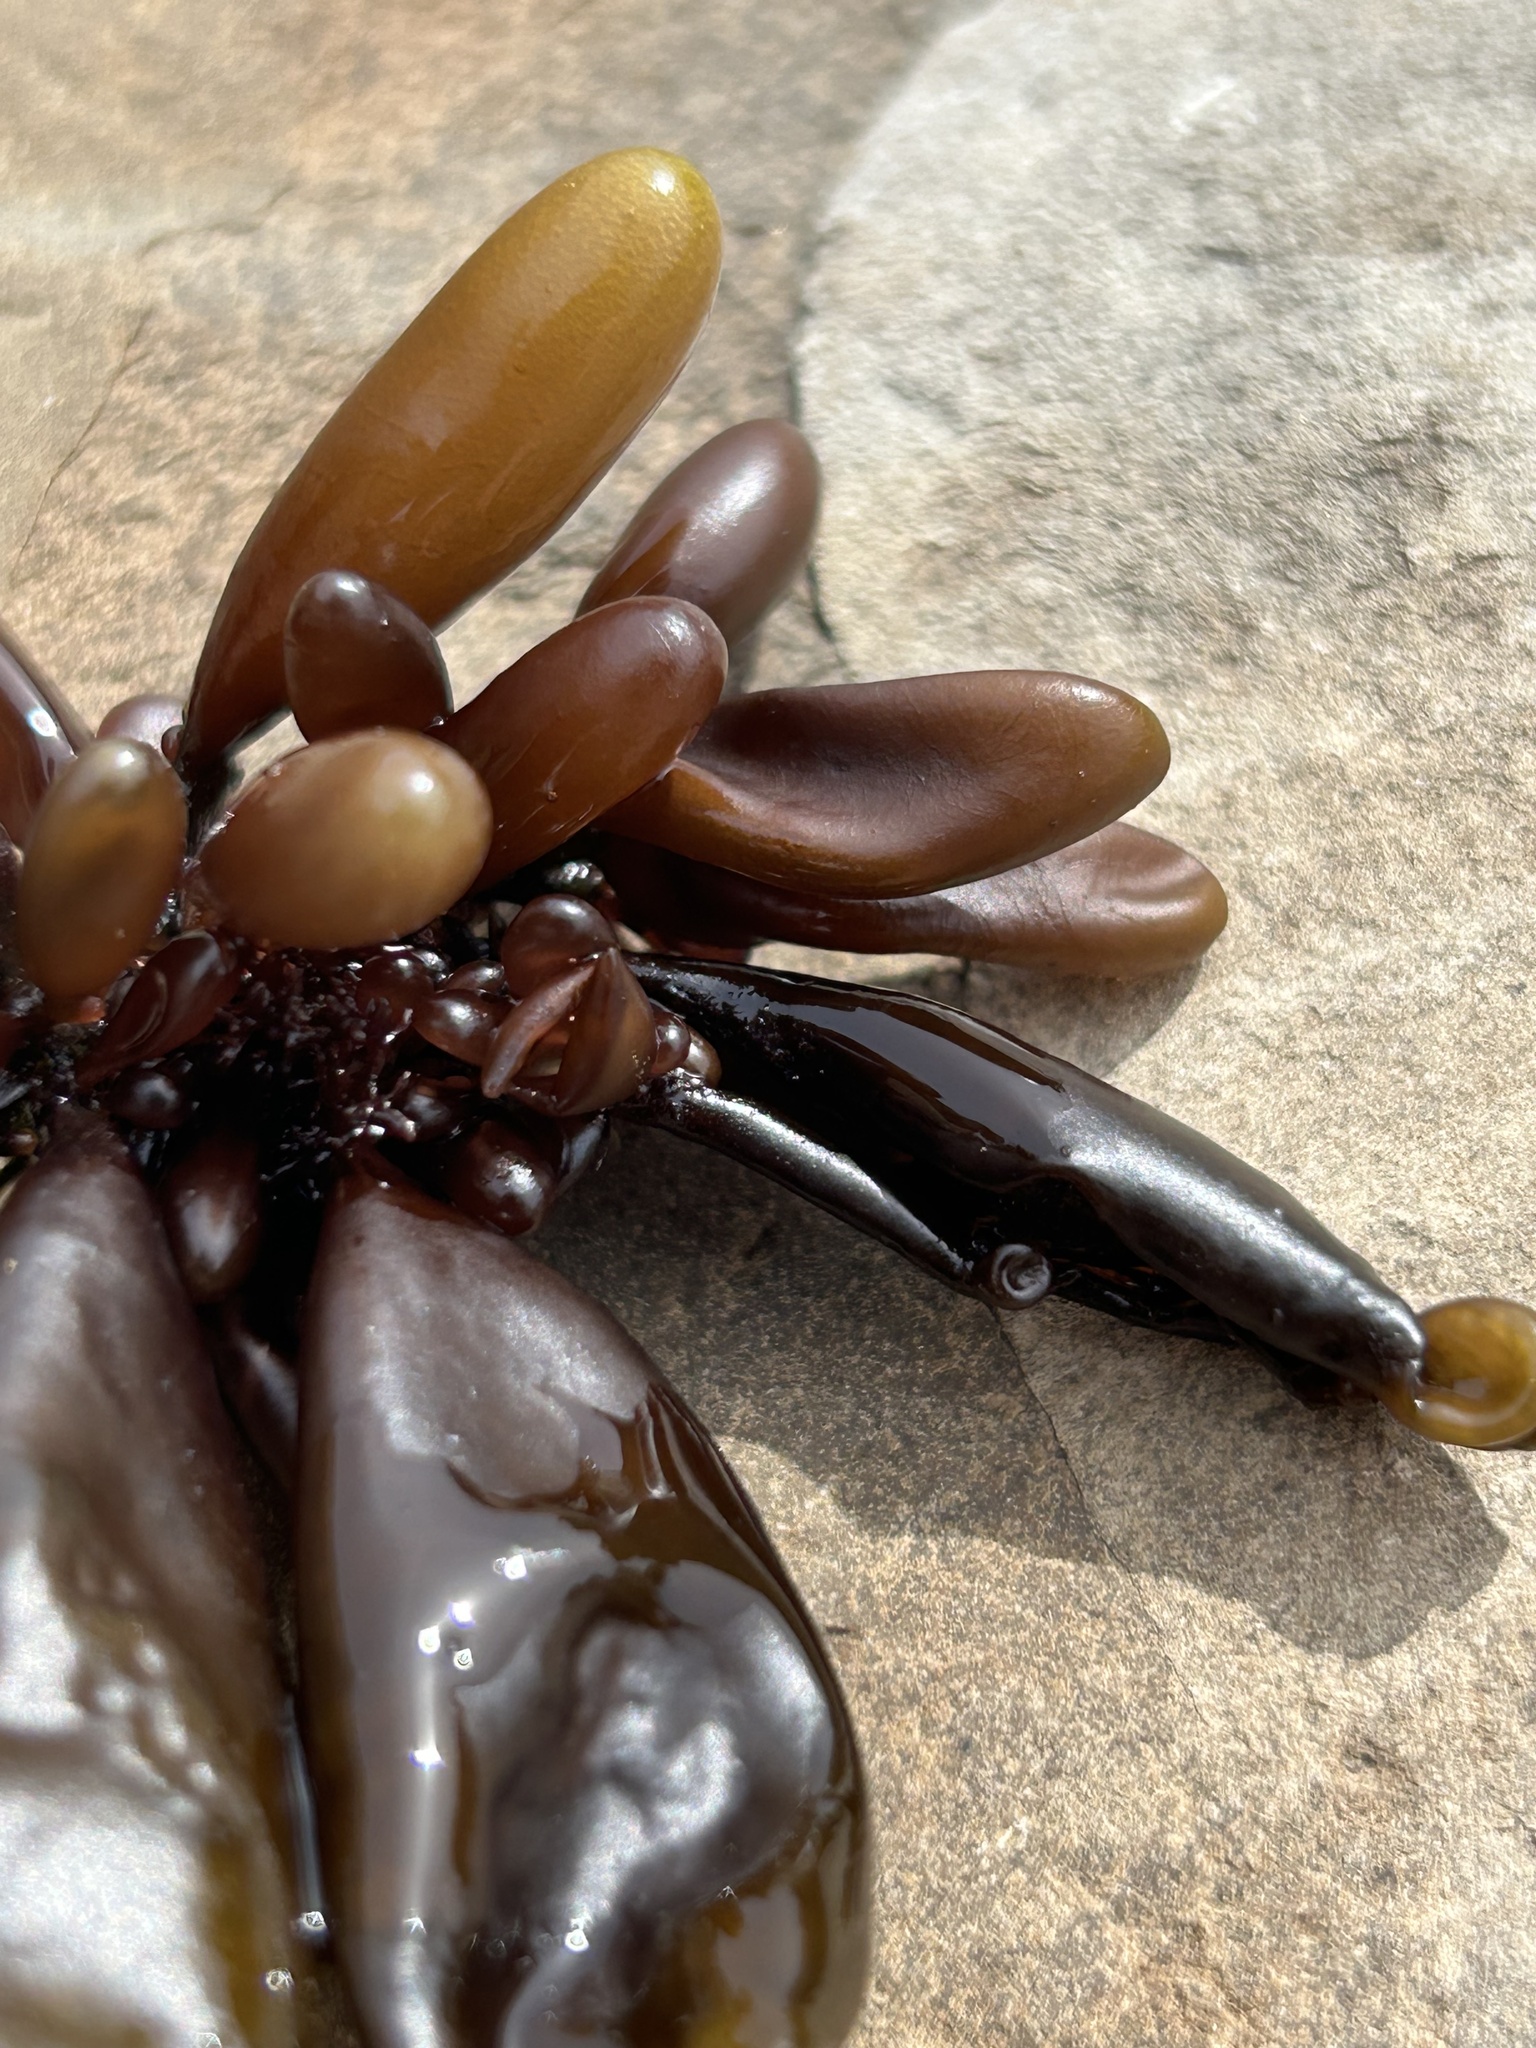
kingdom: Plantae
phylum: Rhodophyta
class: Florideophyceae
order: Palmariales
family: Palmariaceae
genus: Halosaccion
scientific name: Halosaccion glandiforme
